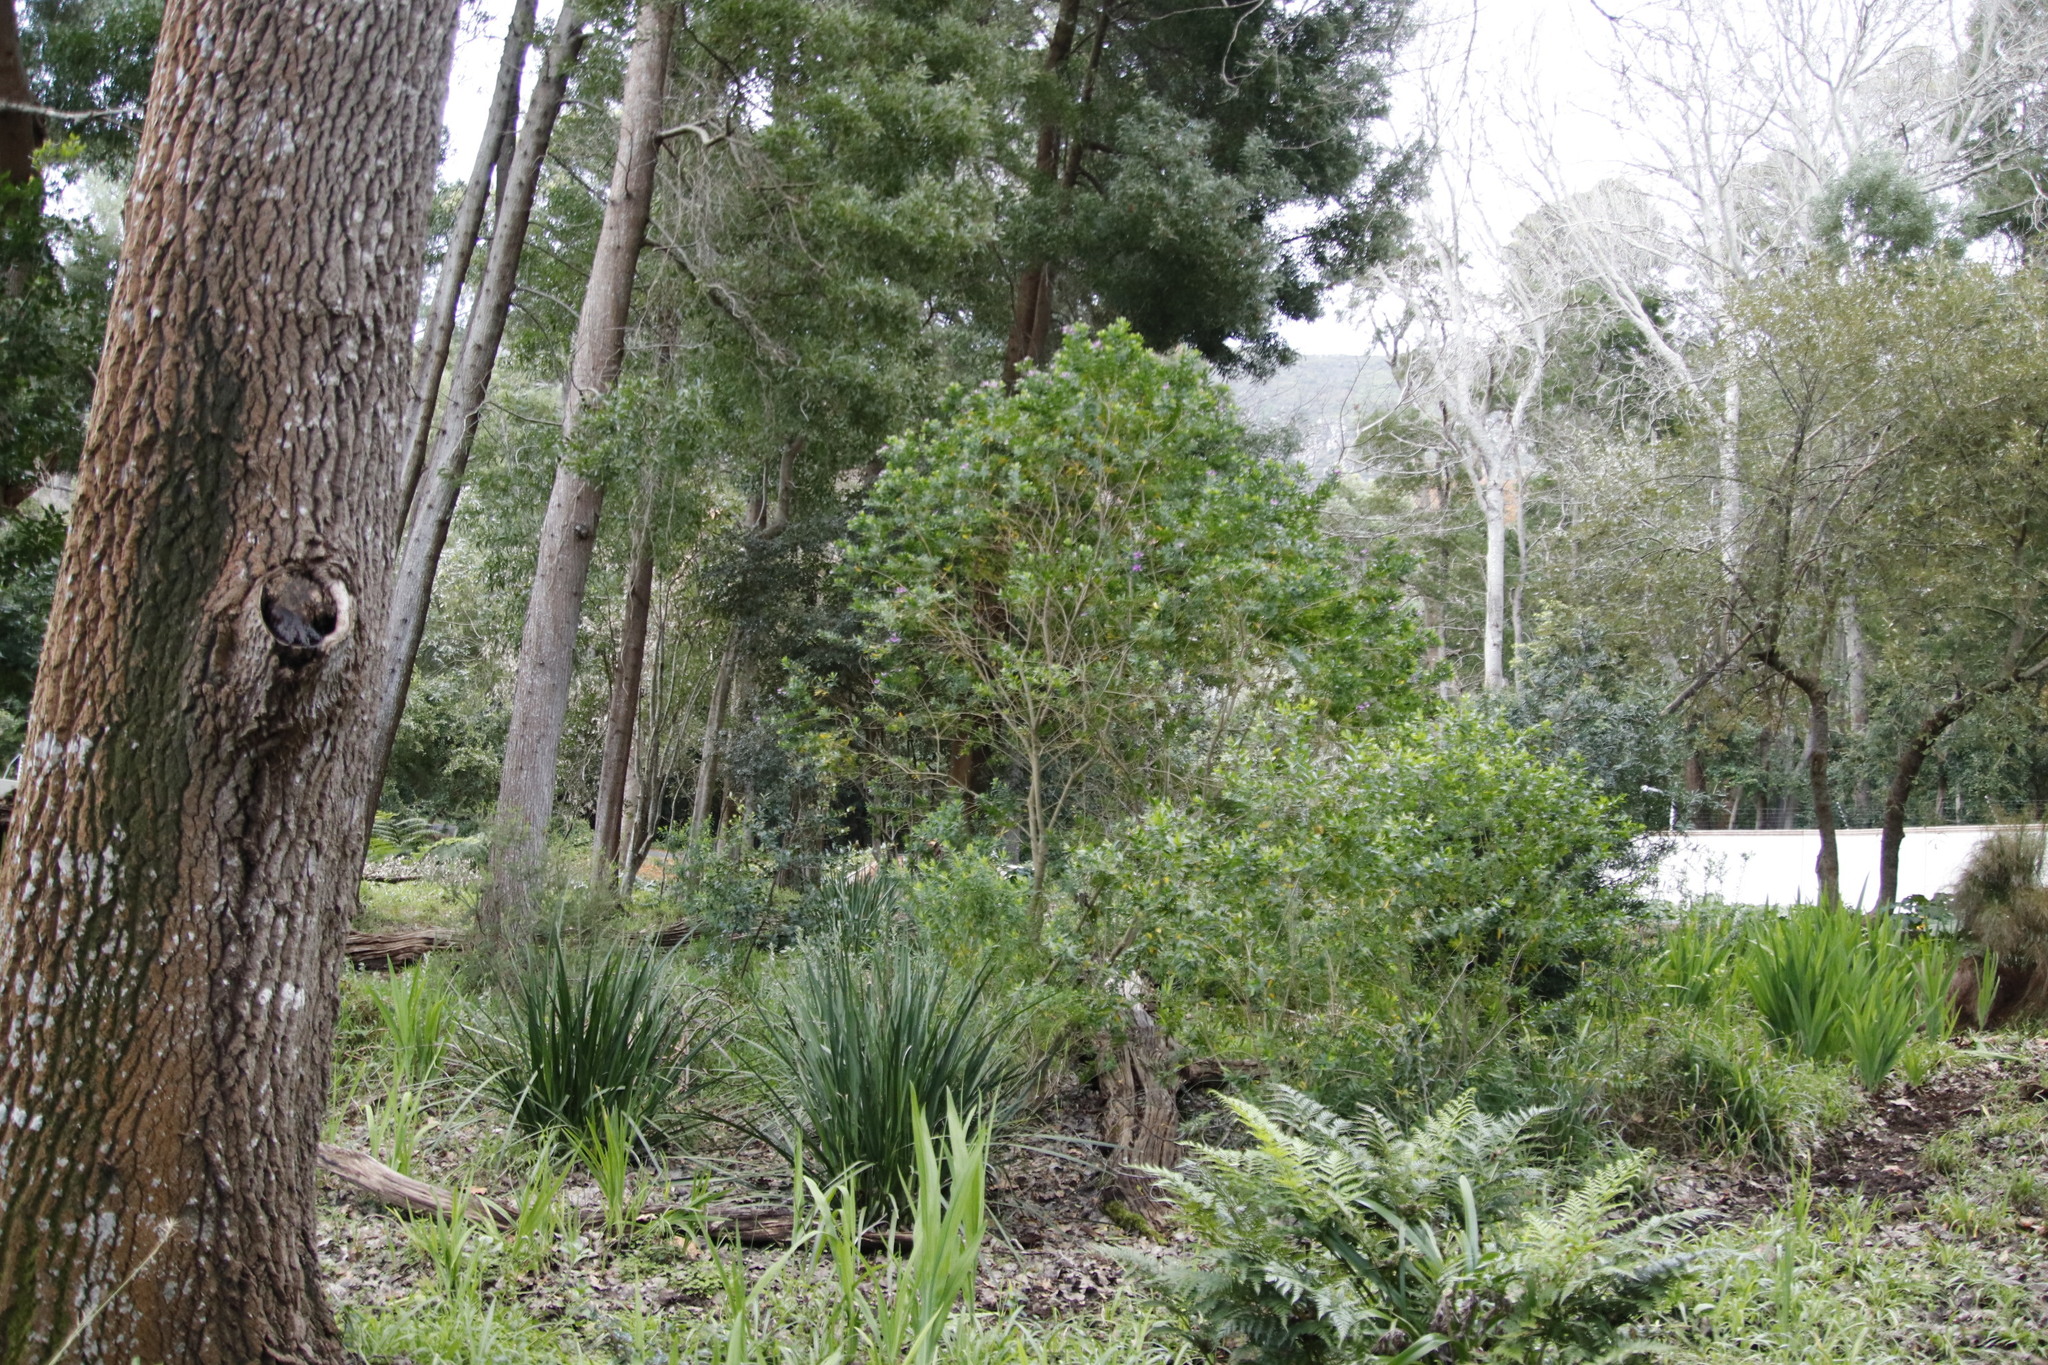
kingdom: Plantae
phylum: Tracheophyta
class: Magnoliopsida
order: Fabales
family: Polygalaceae
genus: Polygala
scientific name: Polygala myrtifolia
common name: Myrtle-leaf milkwort
